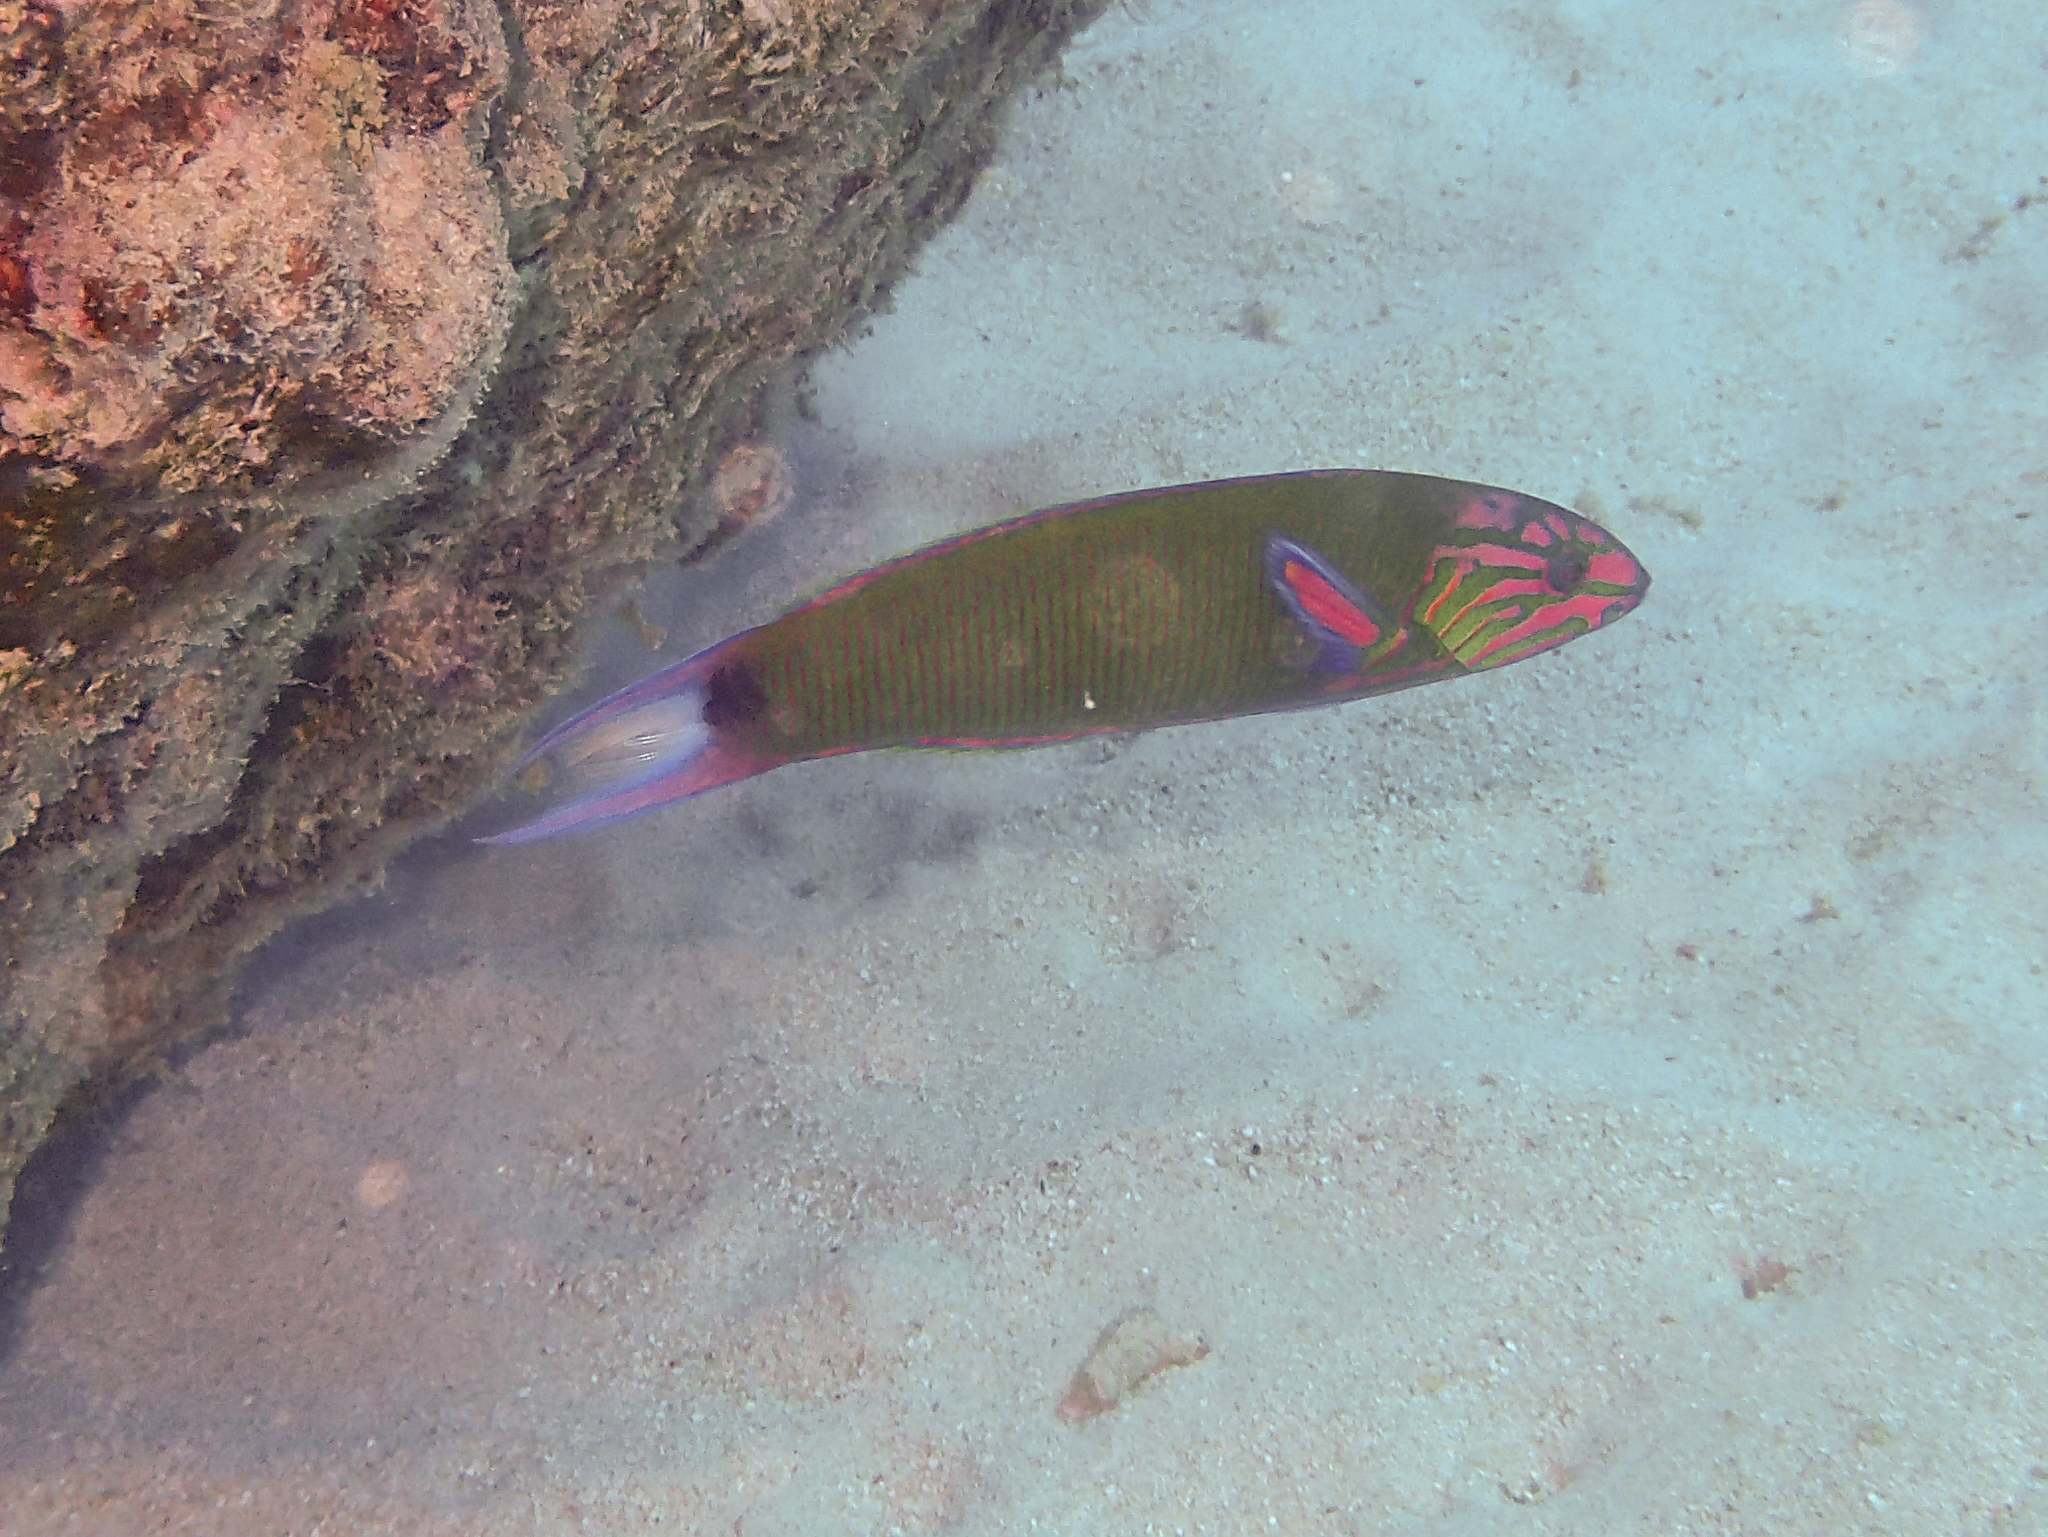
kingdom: Animalia
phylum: Chordata
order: Perciformes
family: Labridae
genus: Thalassoma
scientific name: Thalassoma lunare
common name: Blue wrasse
